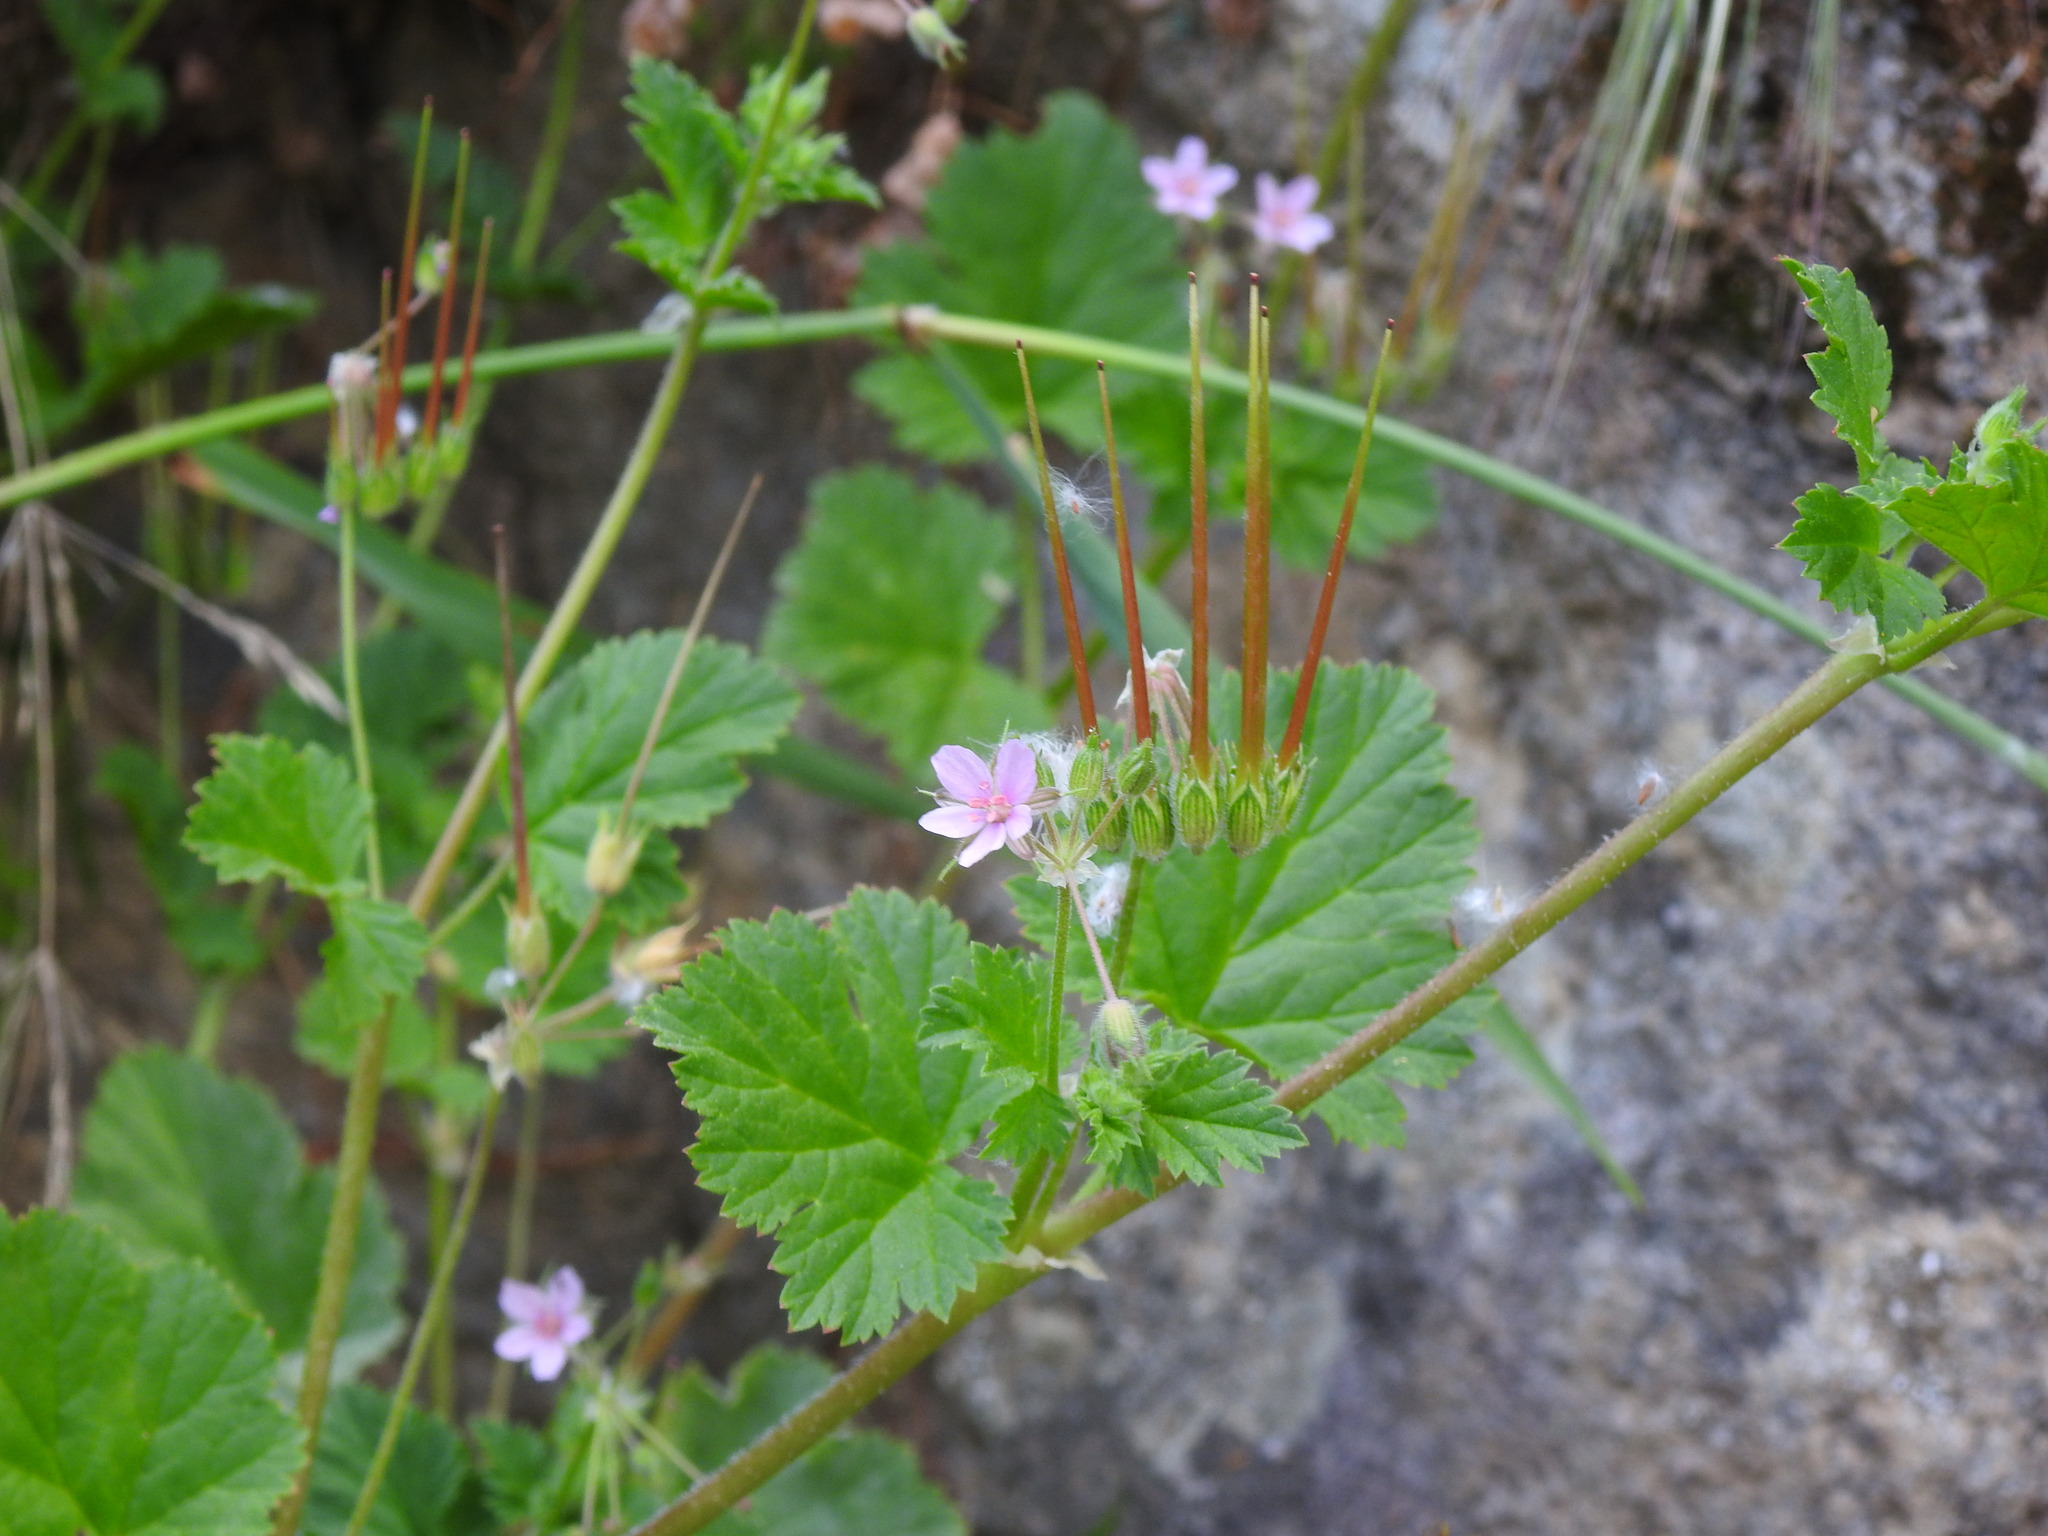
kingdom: Plantae
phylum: Tracheophyta
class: Magnoliopsida
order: Geraniales
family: Geraniaceae
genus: Erodium
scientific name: Erodium malacoides
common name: Soft stork's-bill
